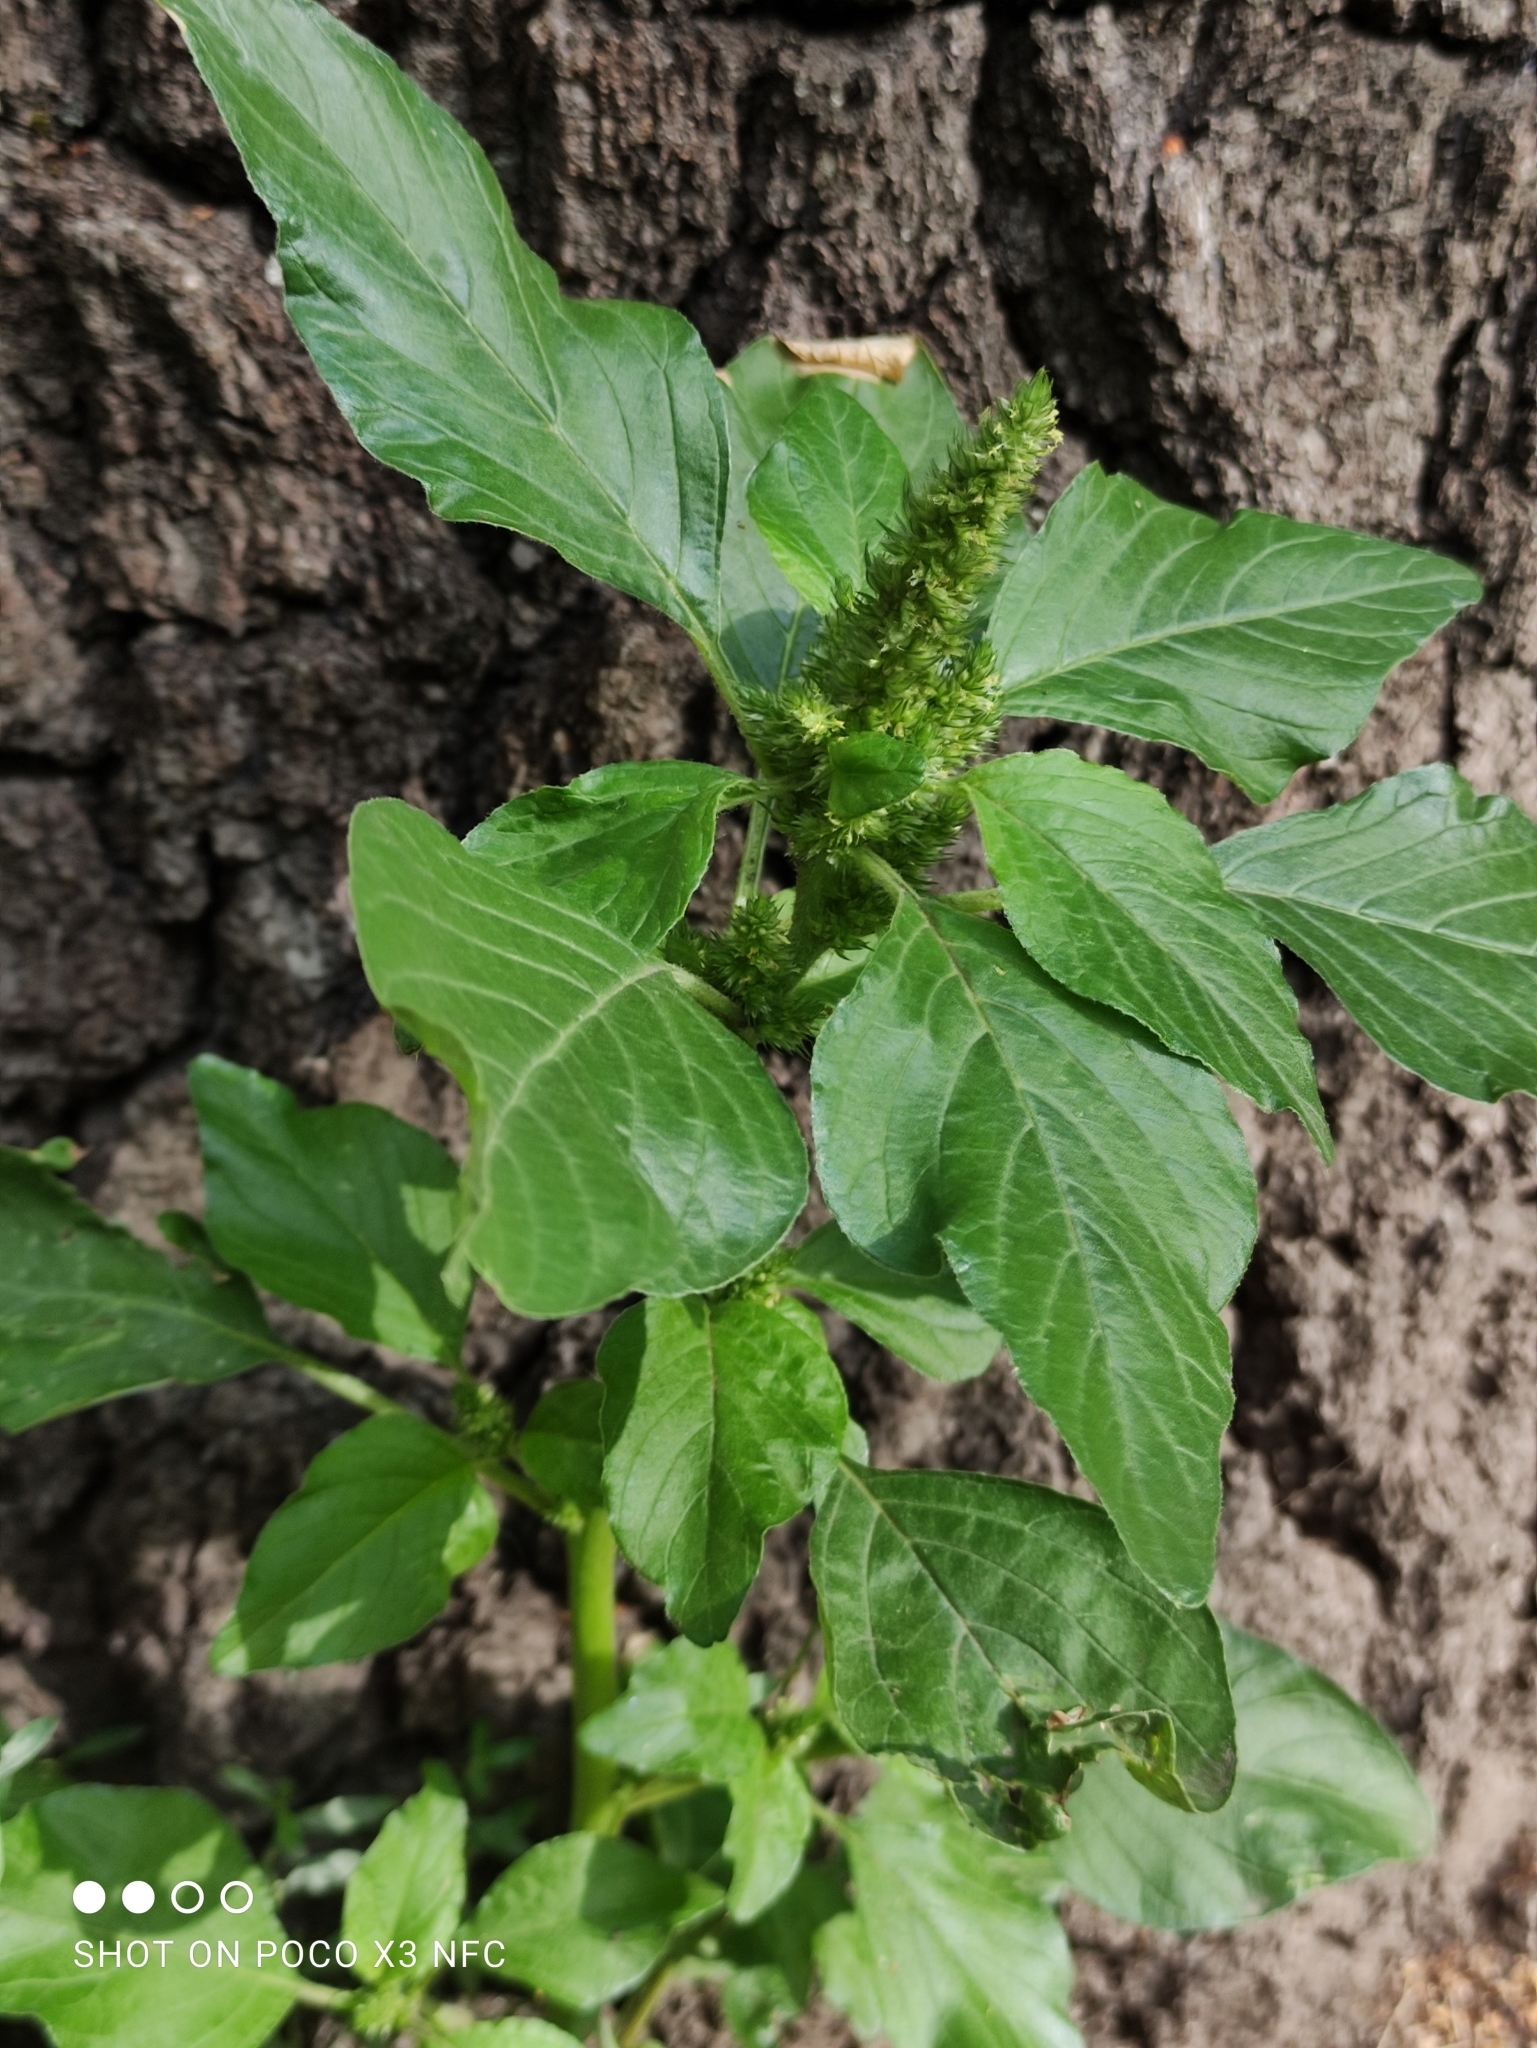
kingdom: Plantae
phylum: Tracheophyta
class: Magnoliopsida
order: Caryophyllales
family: Amaranthaceae
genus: Amaranthus
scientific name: Amaranthus retroflexus
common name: Redroot amaranth
